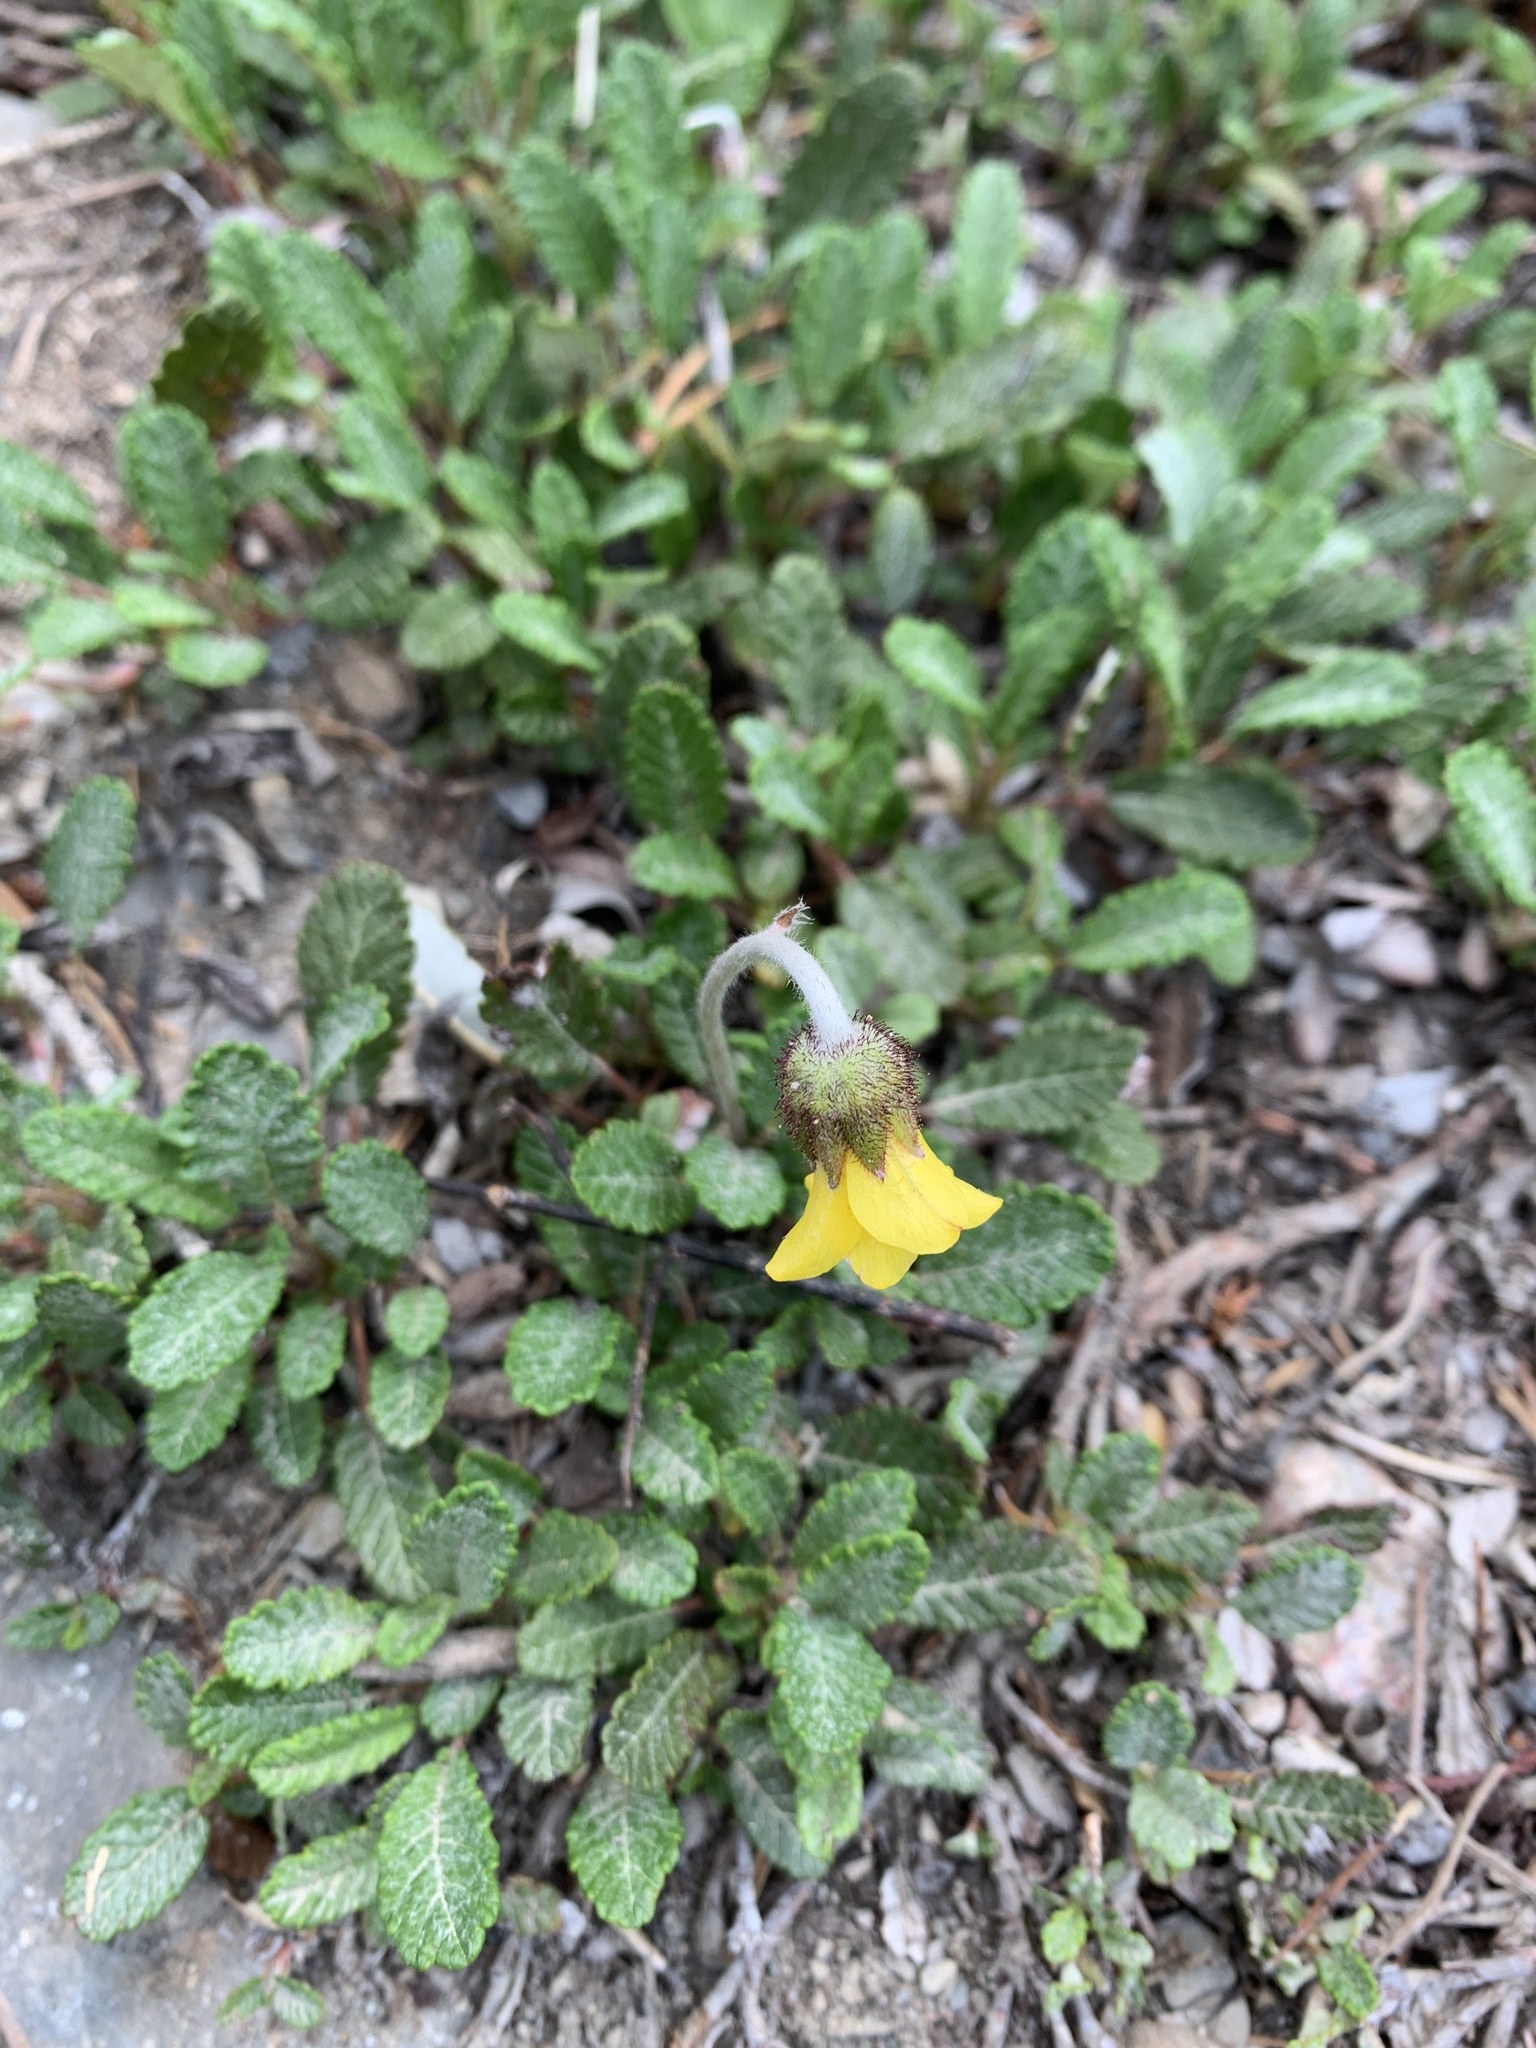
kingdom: Plantae
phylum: Tracheophyta
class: Magnoliopsida
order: Rosales
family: Rosaceae
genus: Dryas
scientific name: Dryas drummondii
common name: Drummond's dryad
